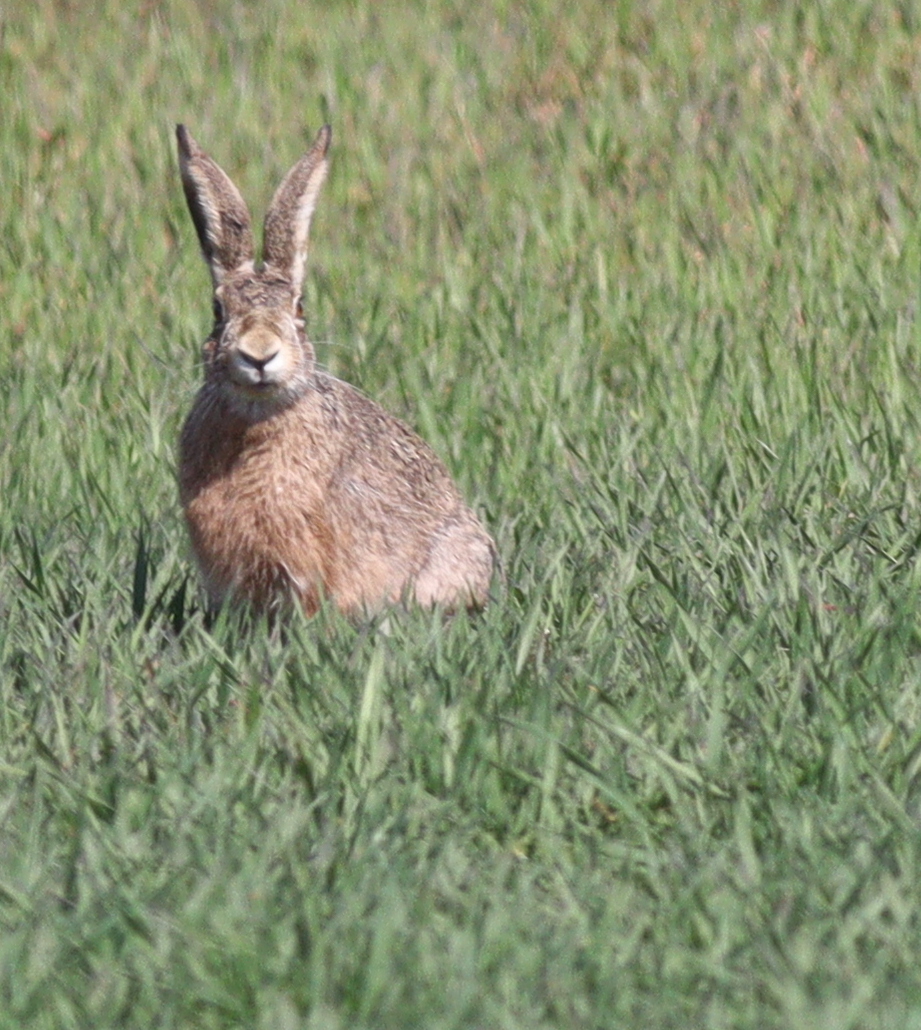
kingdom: Animalia
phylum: Chordata
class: Mammalia
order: Lagomorpha
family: Leporidae
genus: Lepus
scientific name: Lepus europaeus
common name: European hare
